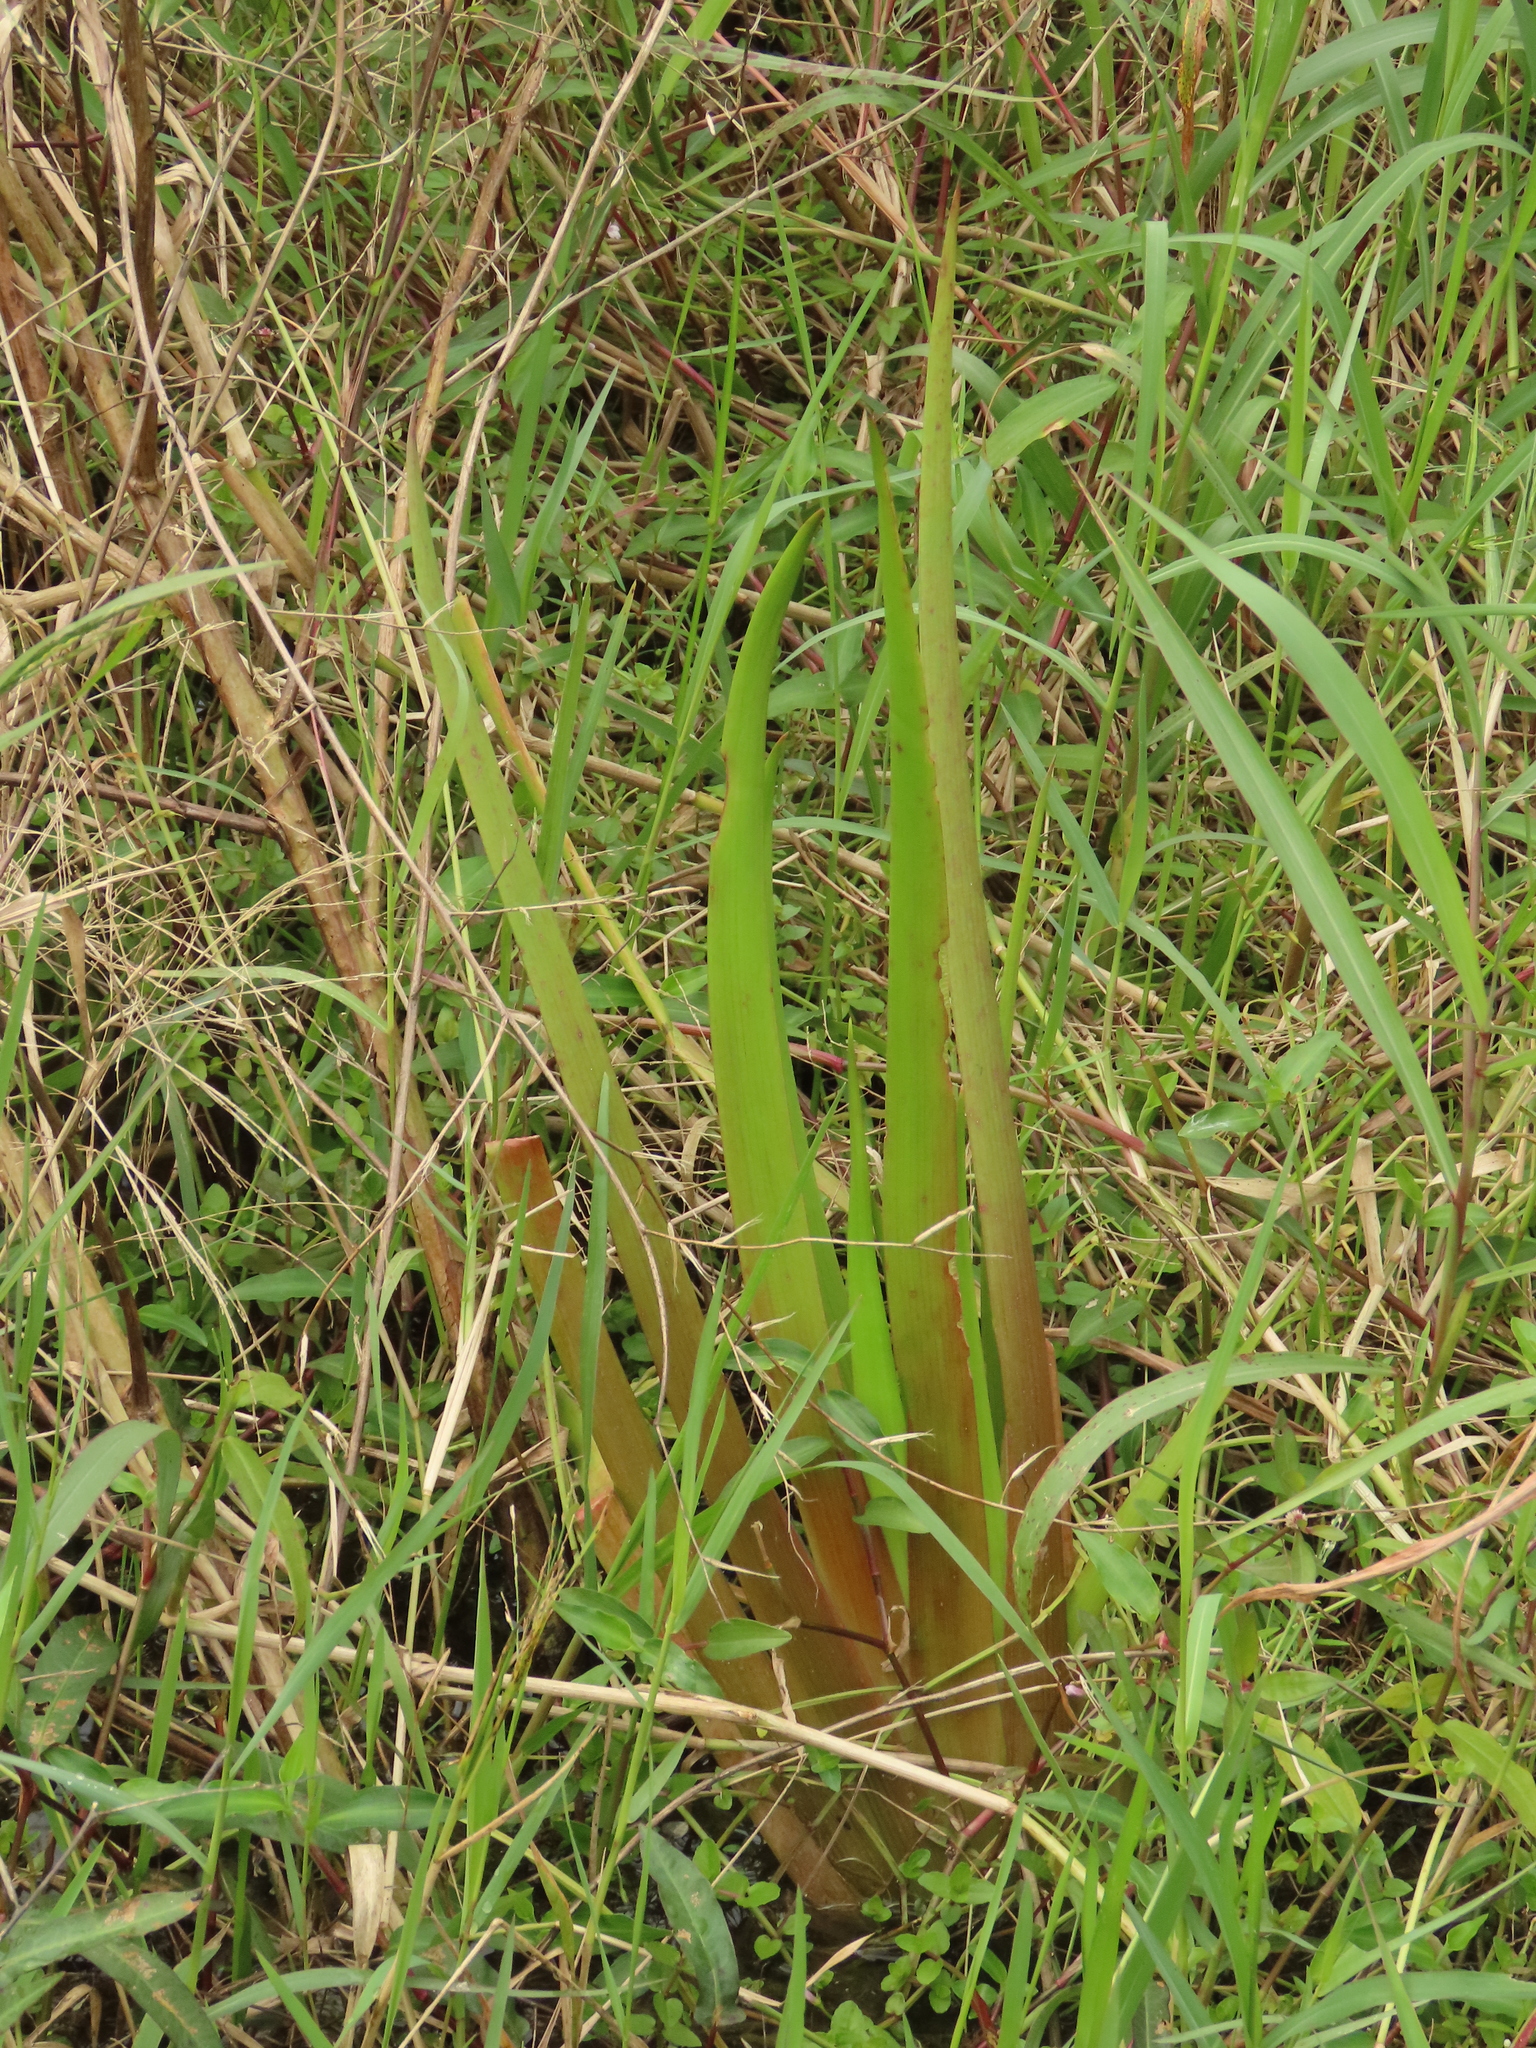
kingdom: Plantae
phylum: Tracheophyta
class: Liliopsida
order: Commelinales
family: Philydraceae
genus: Philydrum
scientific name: Philydrum lanuginosum
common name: Woolly frog's mouth
